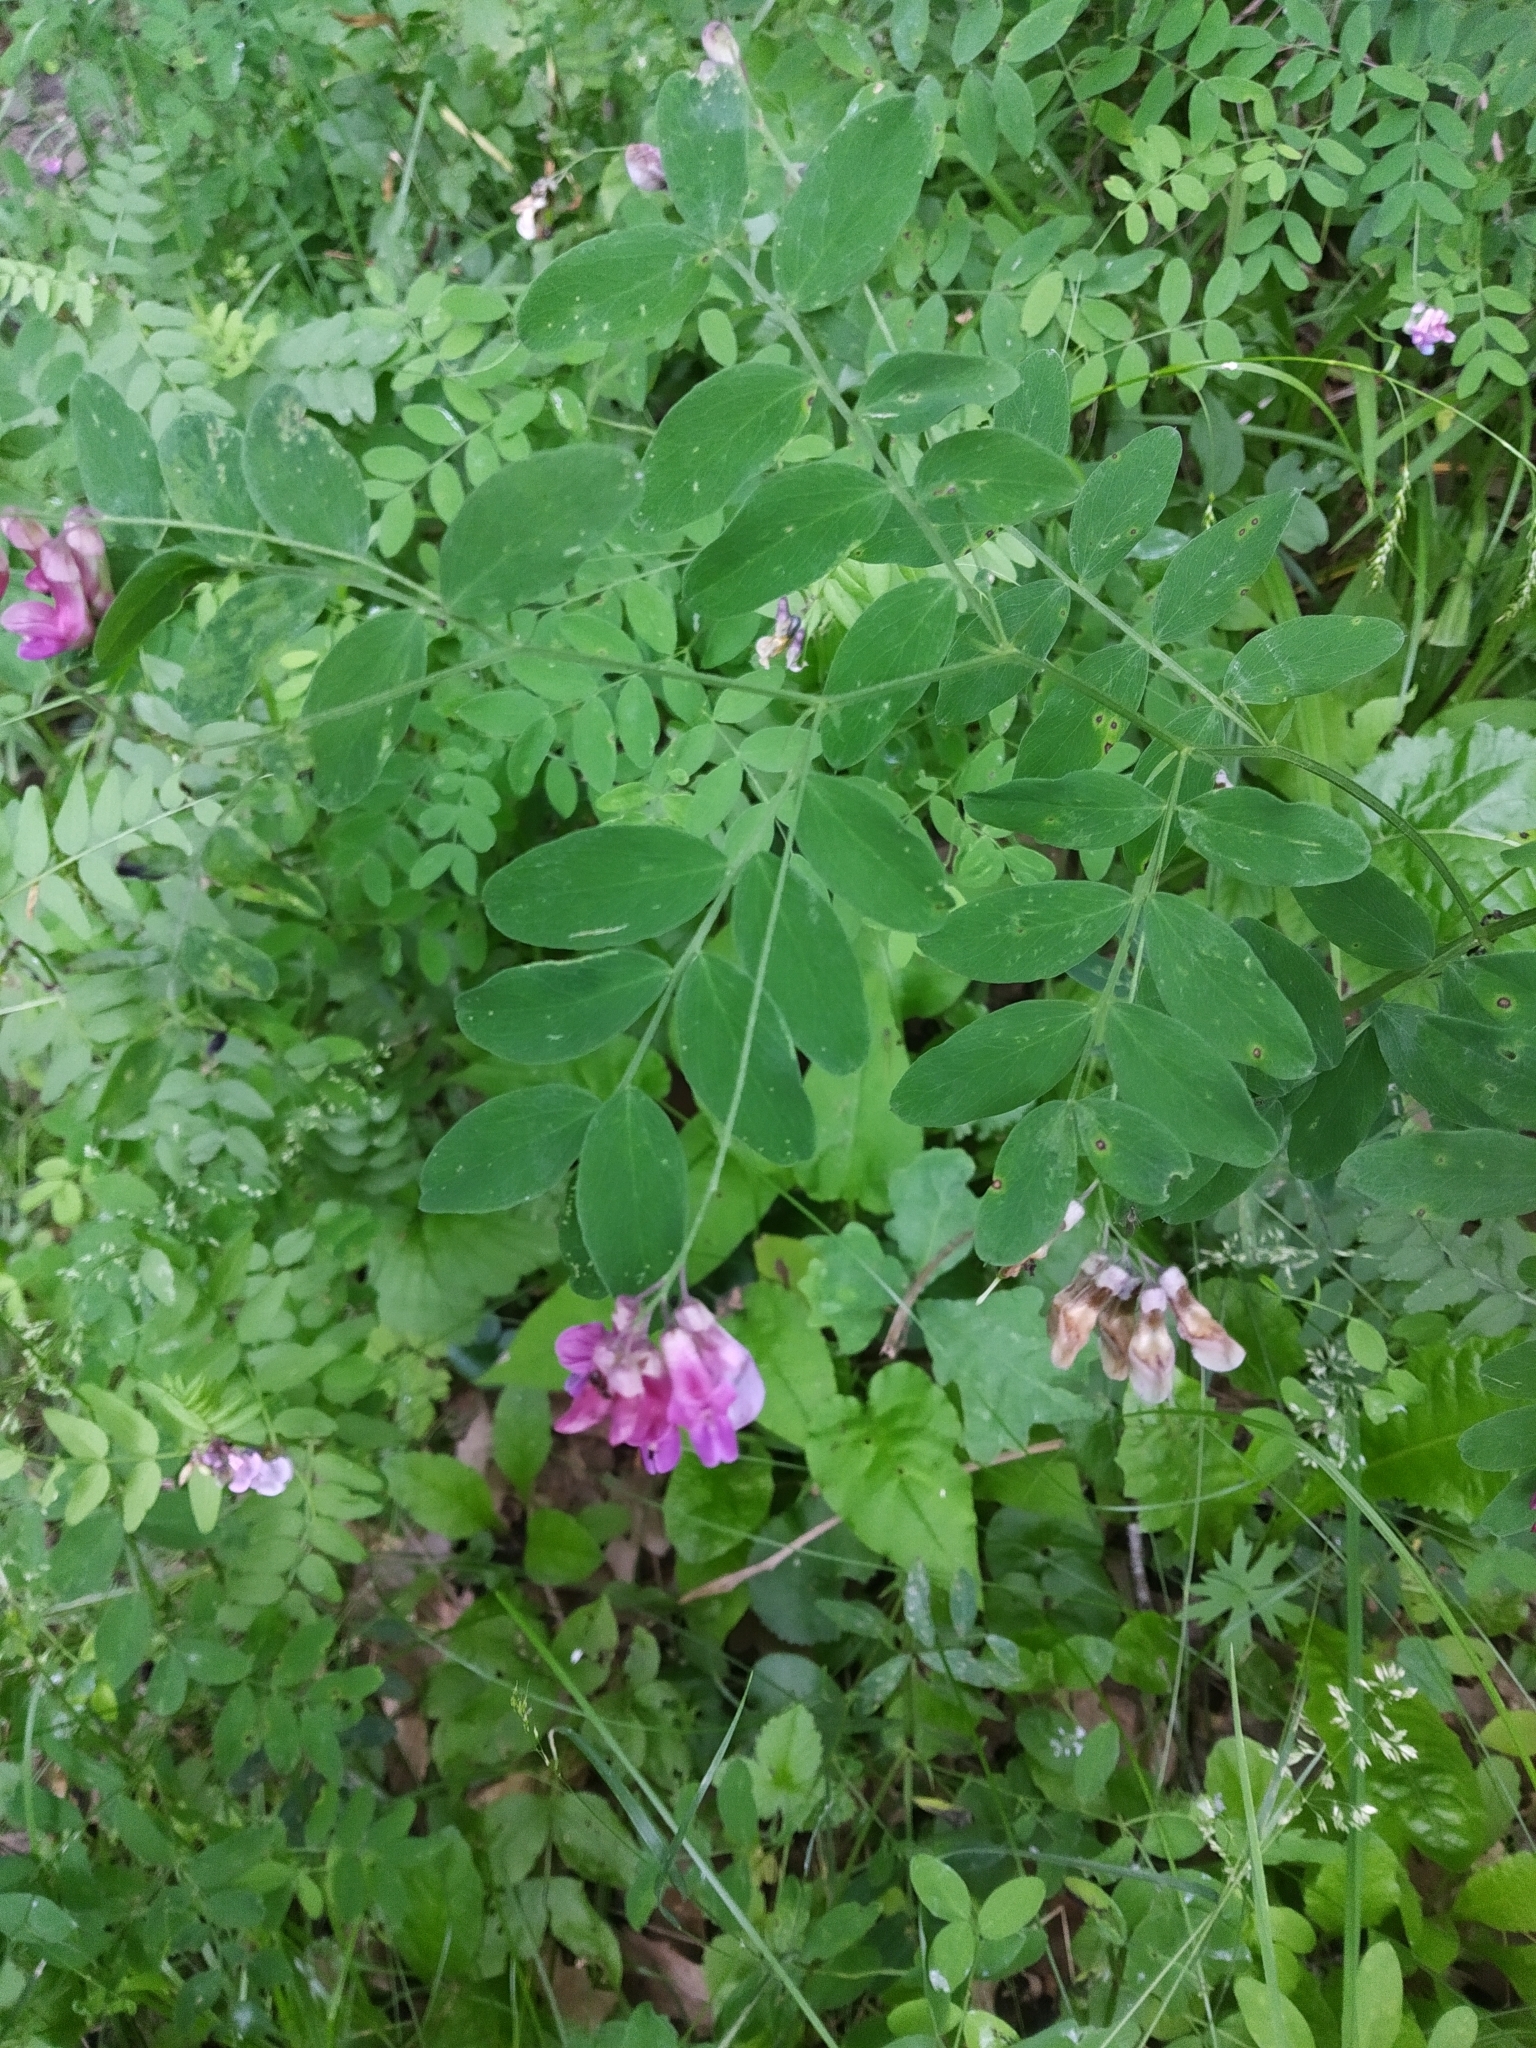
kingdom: Plantae
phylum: Tracheophyta
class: Magnoliopsida
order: Fabales
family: Fabaceae
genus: Lathyrus
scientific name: Lathyrus niger
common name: Black pea
